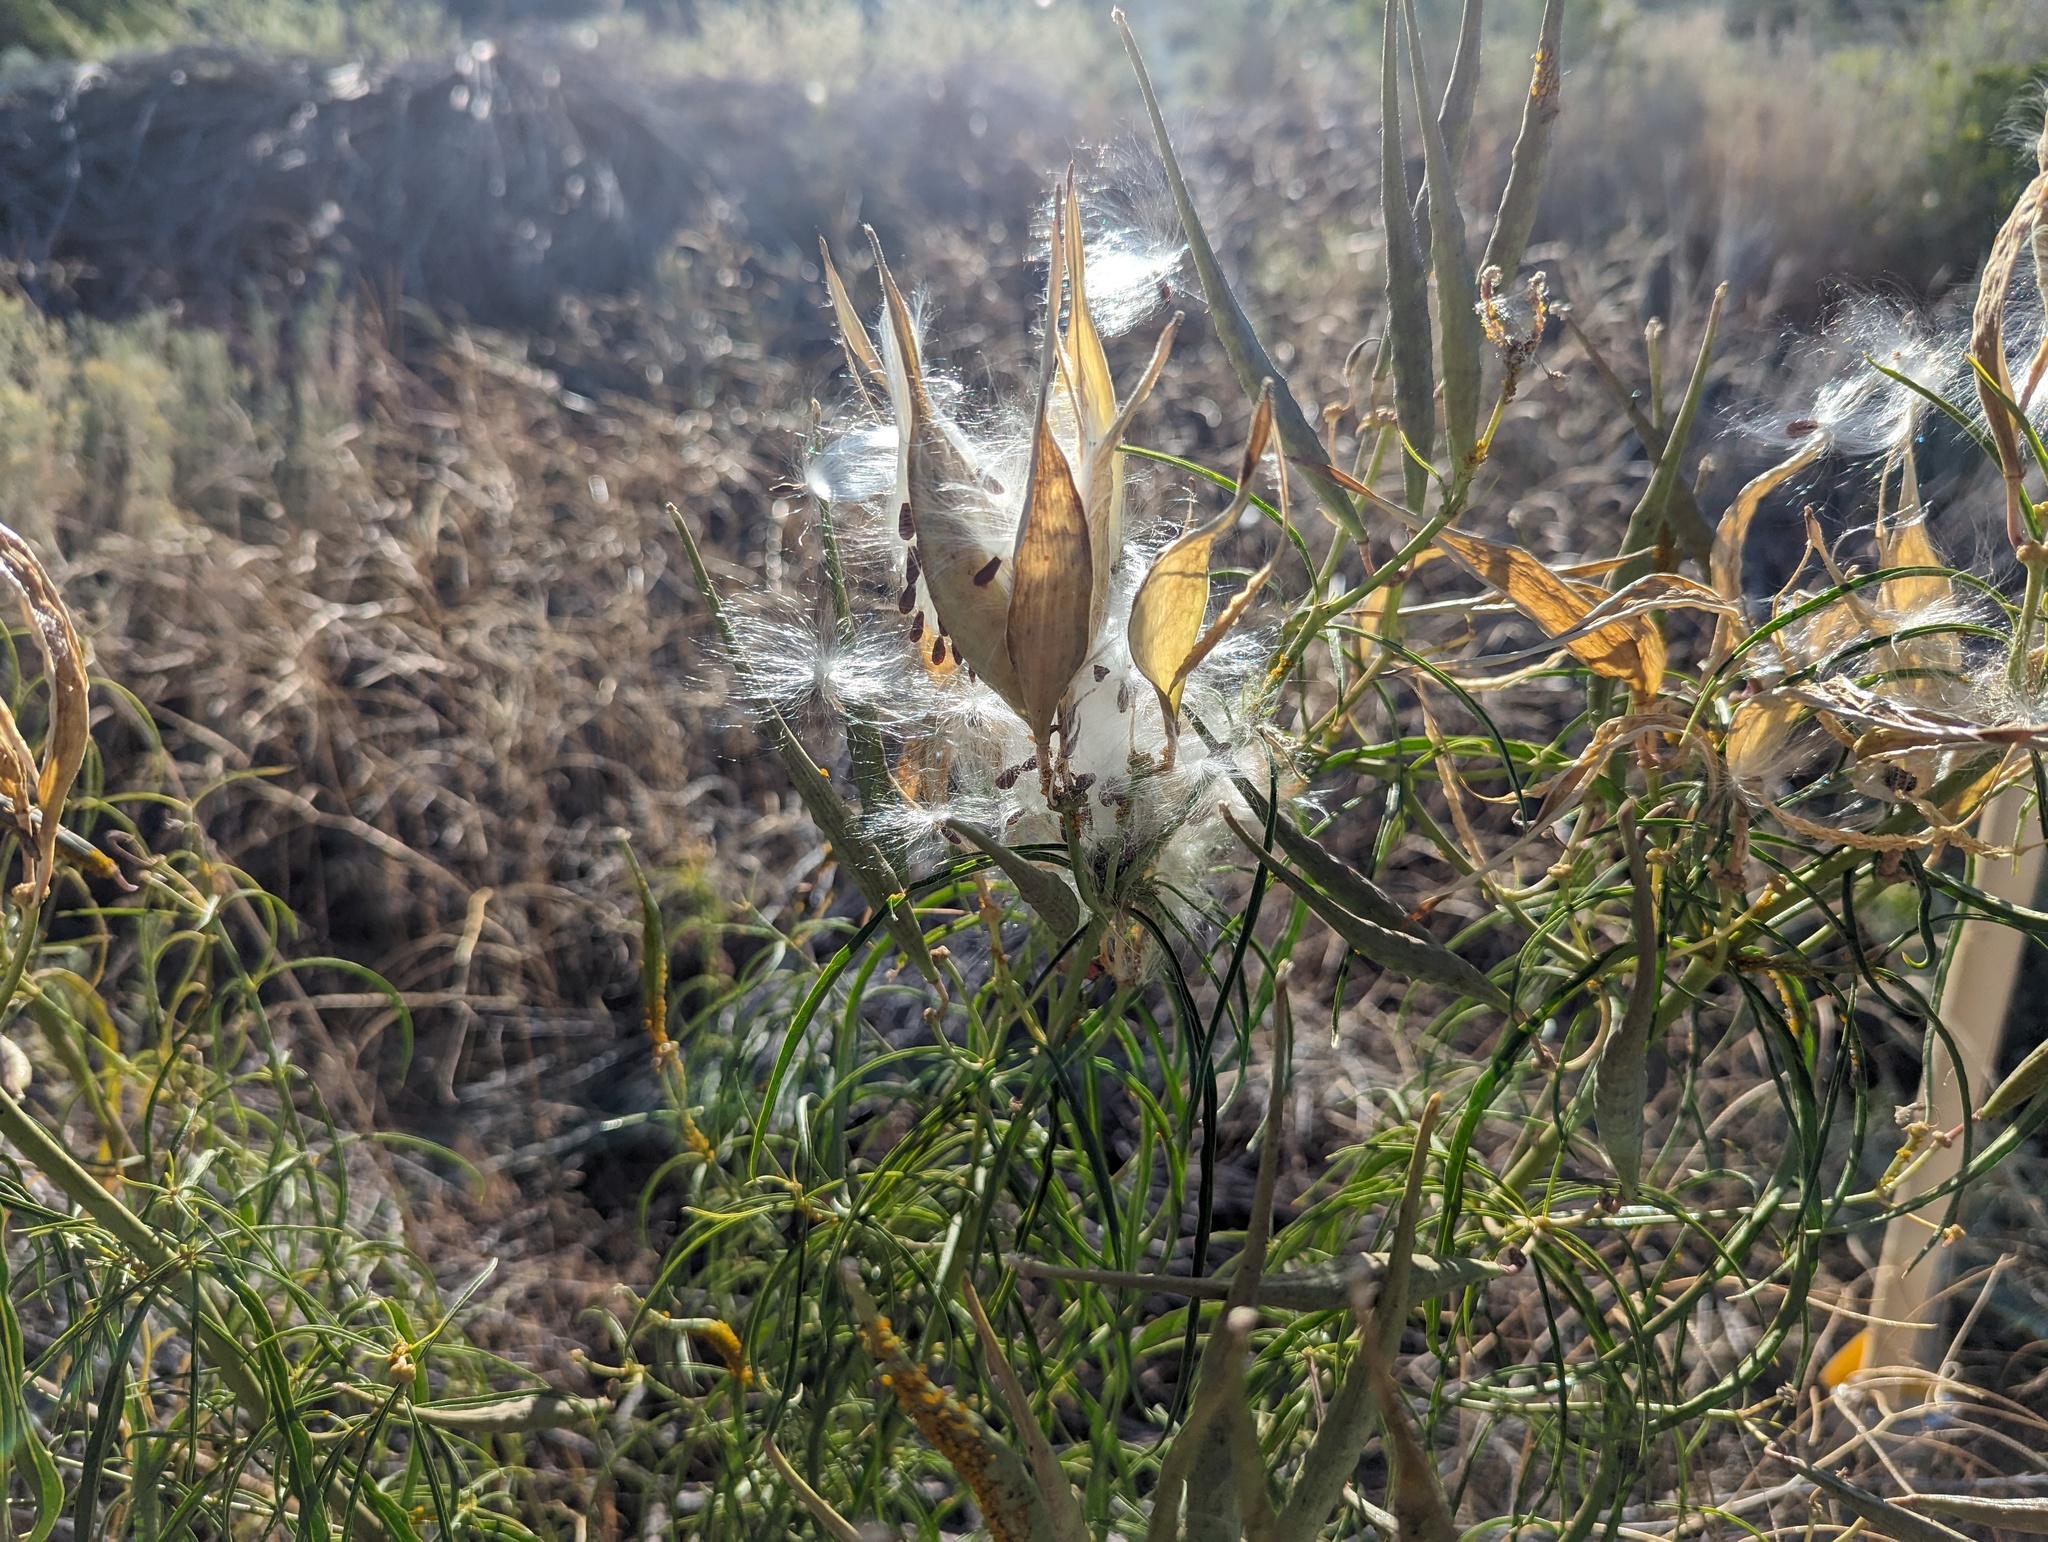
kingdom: Plantae
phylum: Tracheophyta
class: Magnoliopsida
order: Gentianales
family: Apocynaceae
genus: Asclepias
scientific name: Asclepias fascicularis
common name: Mexican milkweed
